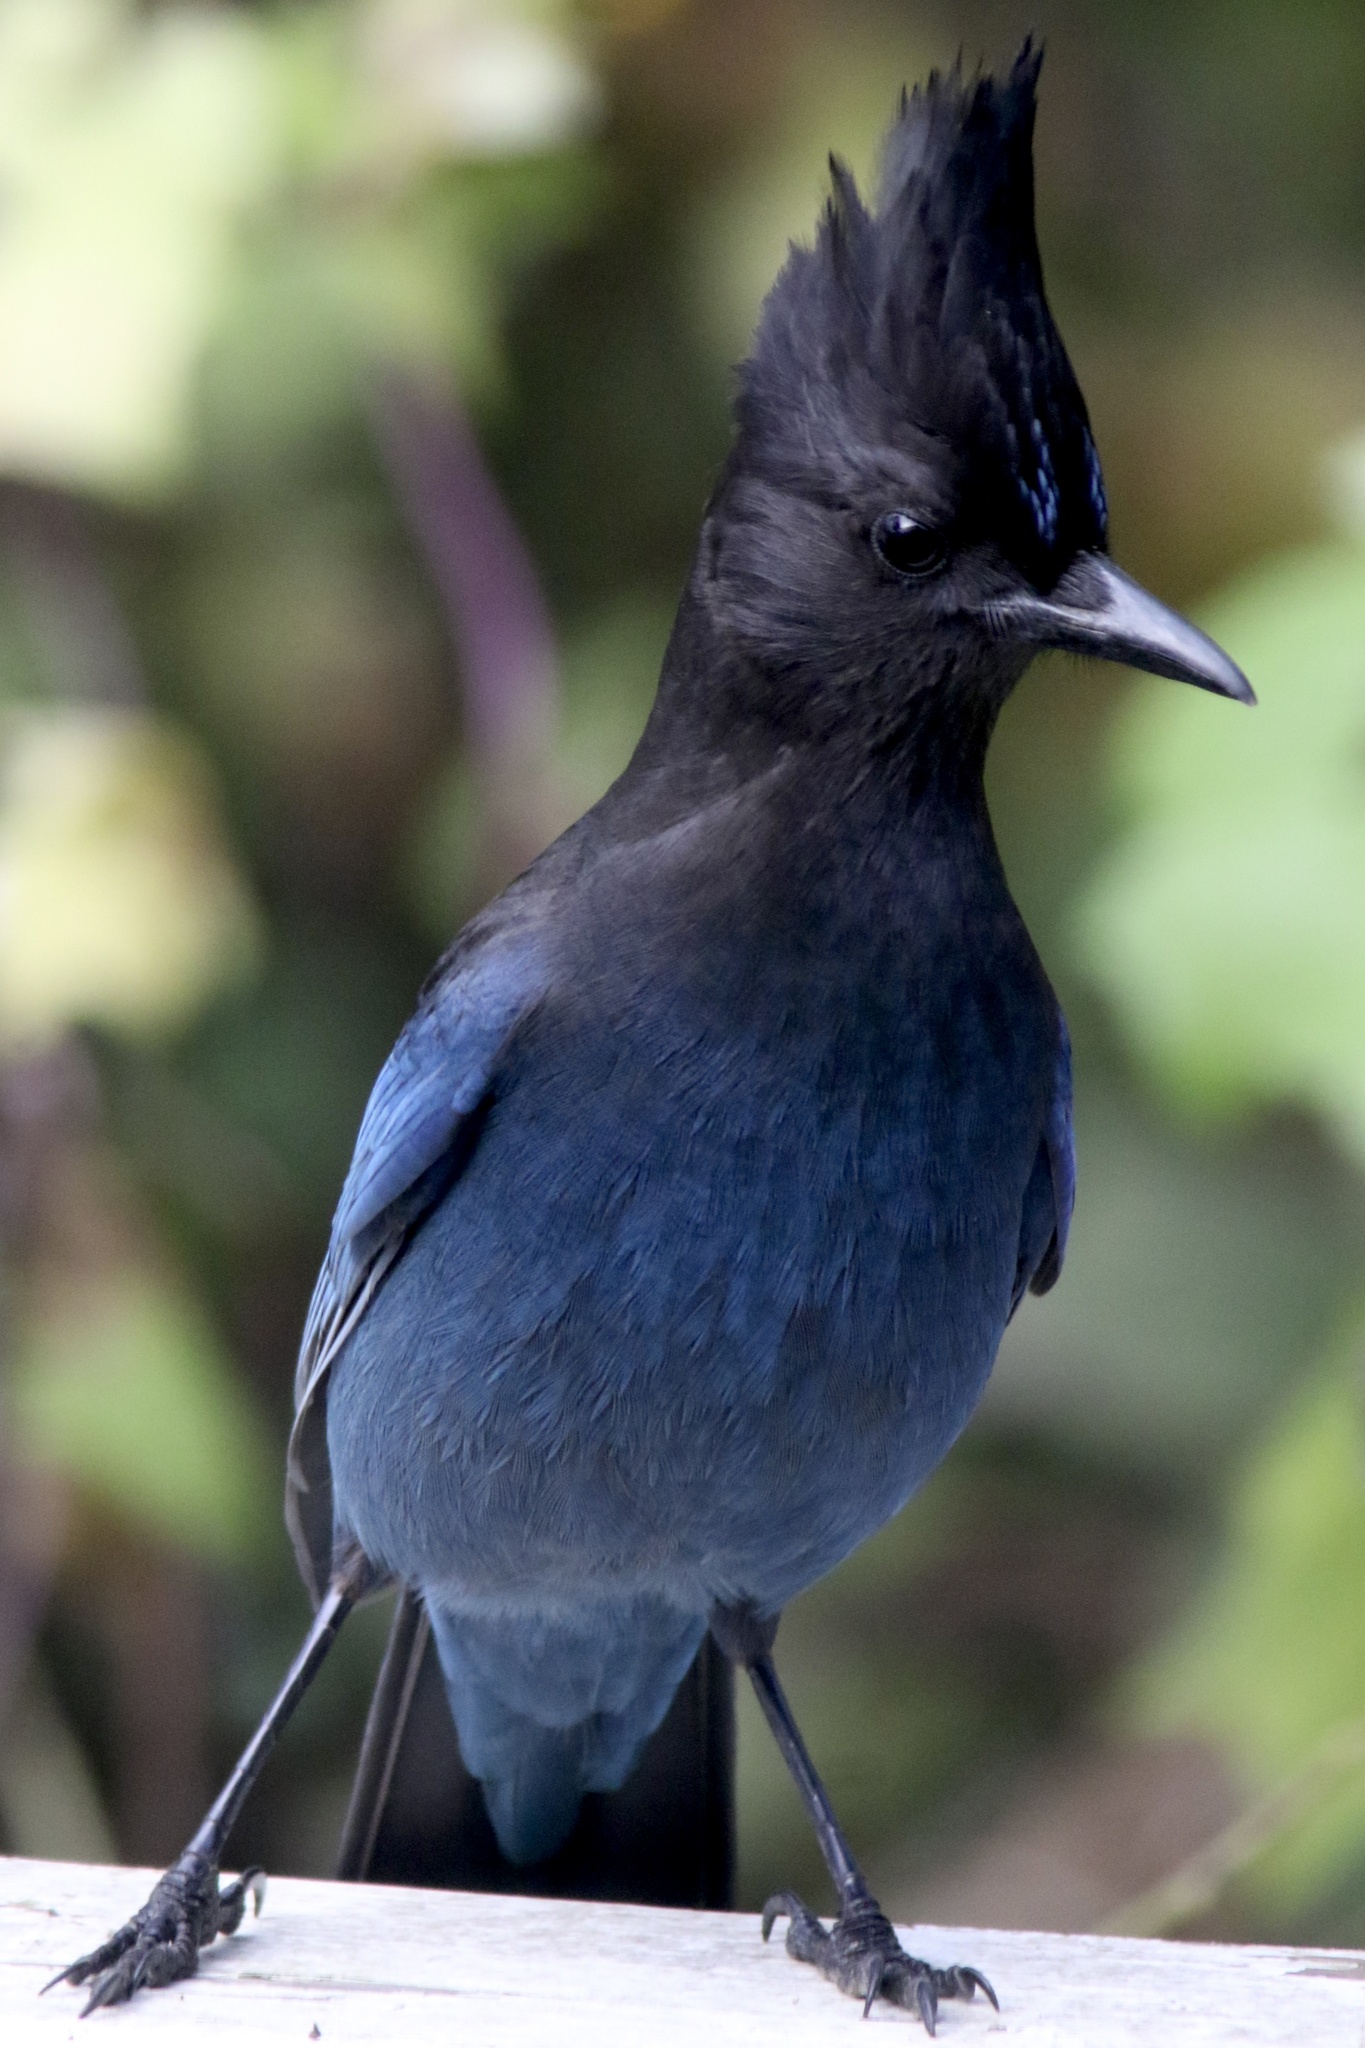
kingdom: Animalia
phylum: Chordata
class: Aves
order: Passeriformes
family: Corvidae
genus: Cyanocitta
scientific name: Cyanocitta stelleri
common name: Steller's jay
